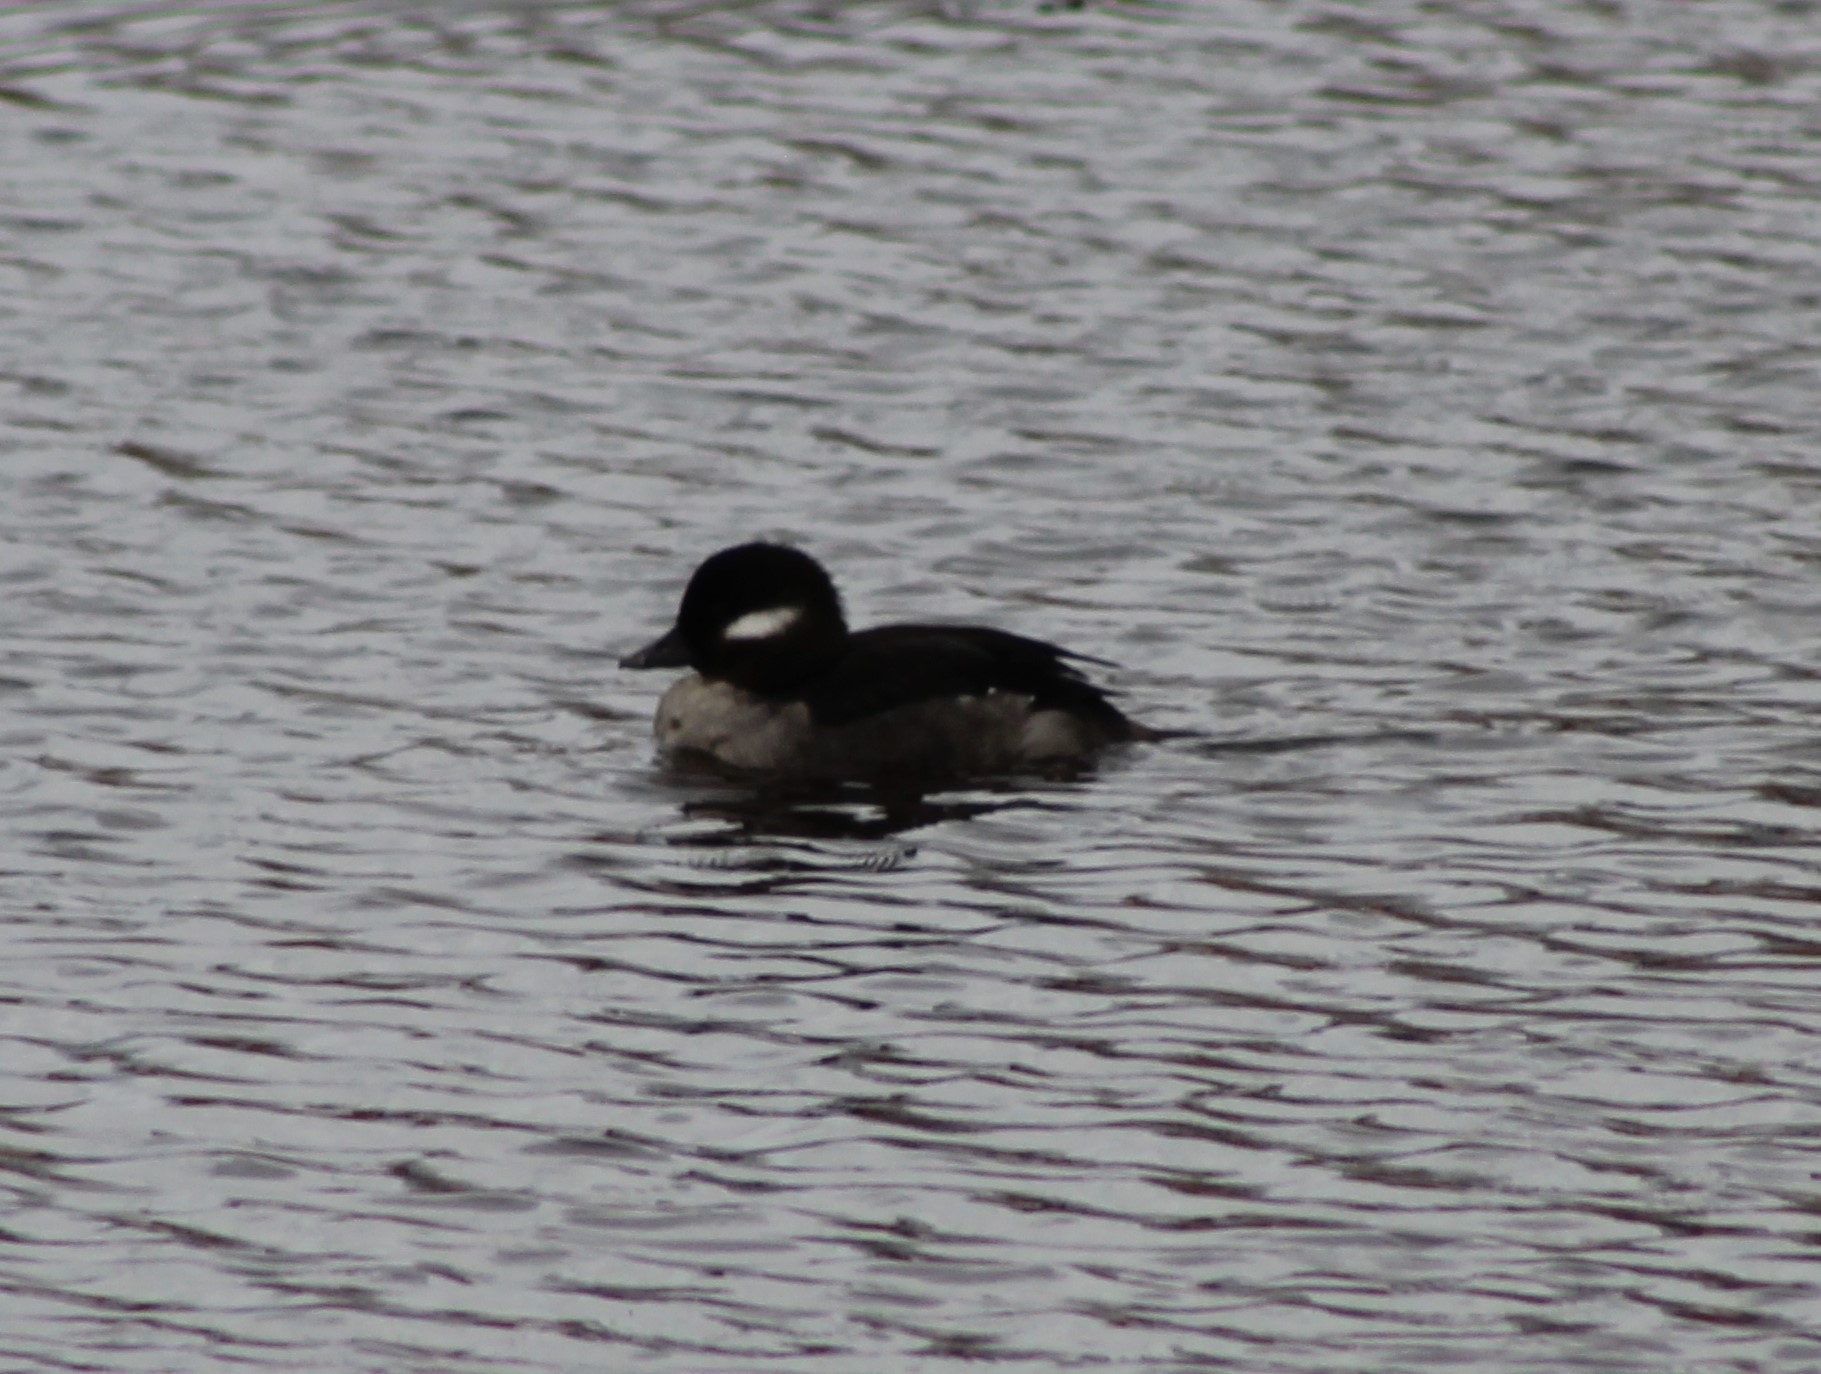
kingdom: Animalia
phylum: Chordata
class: Aves
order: Anseriformes
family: Anatidae
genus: Bucephala
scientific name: Bucephala albeola
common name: Bufflehead
